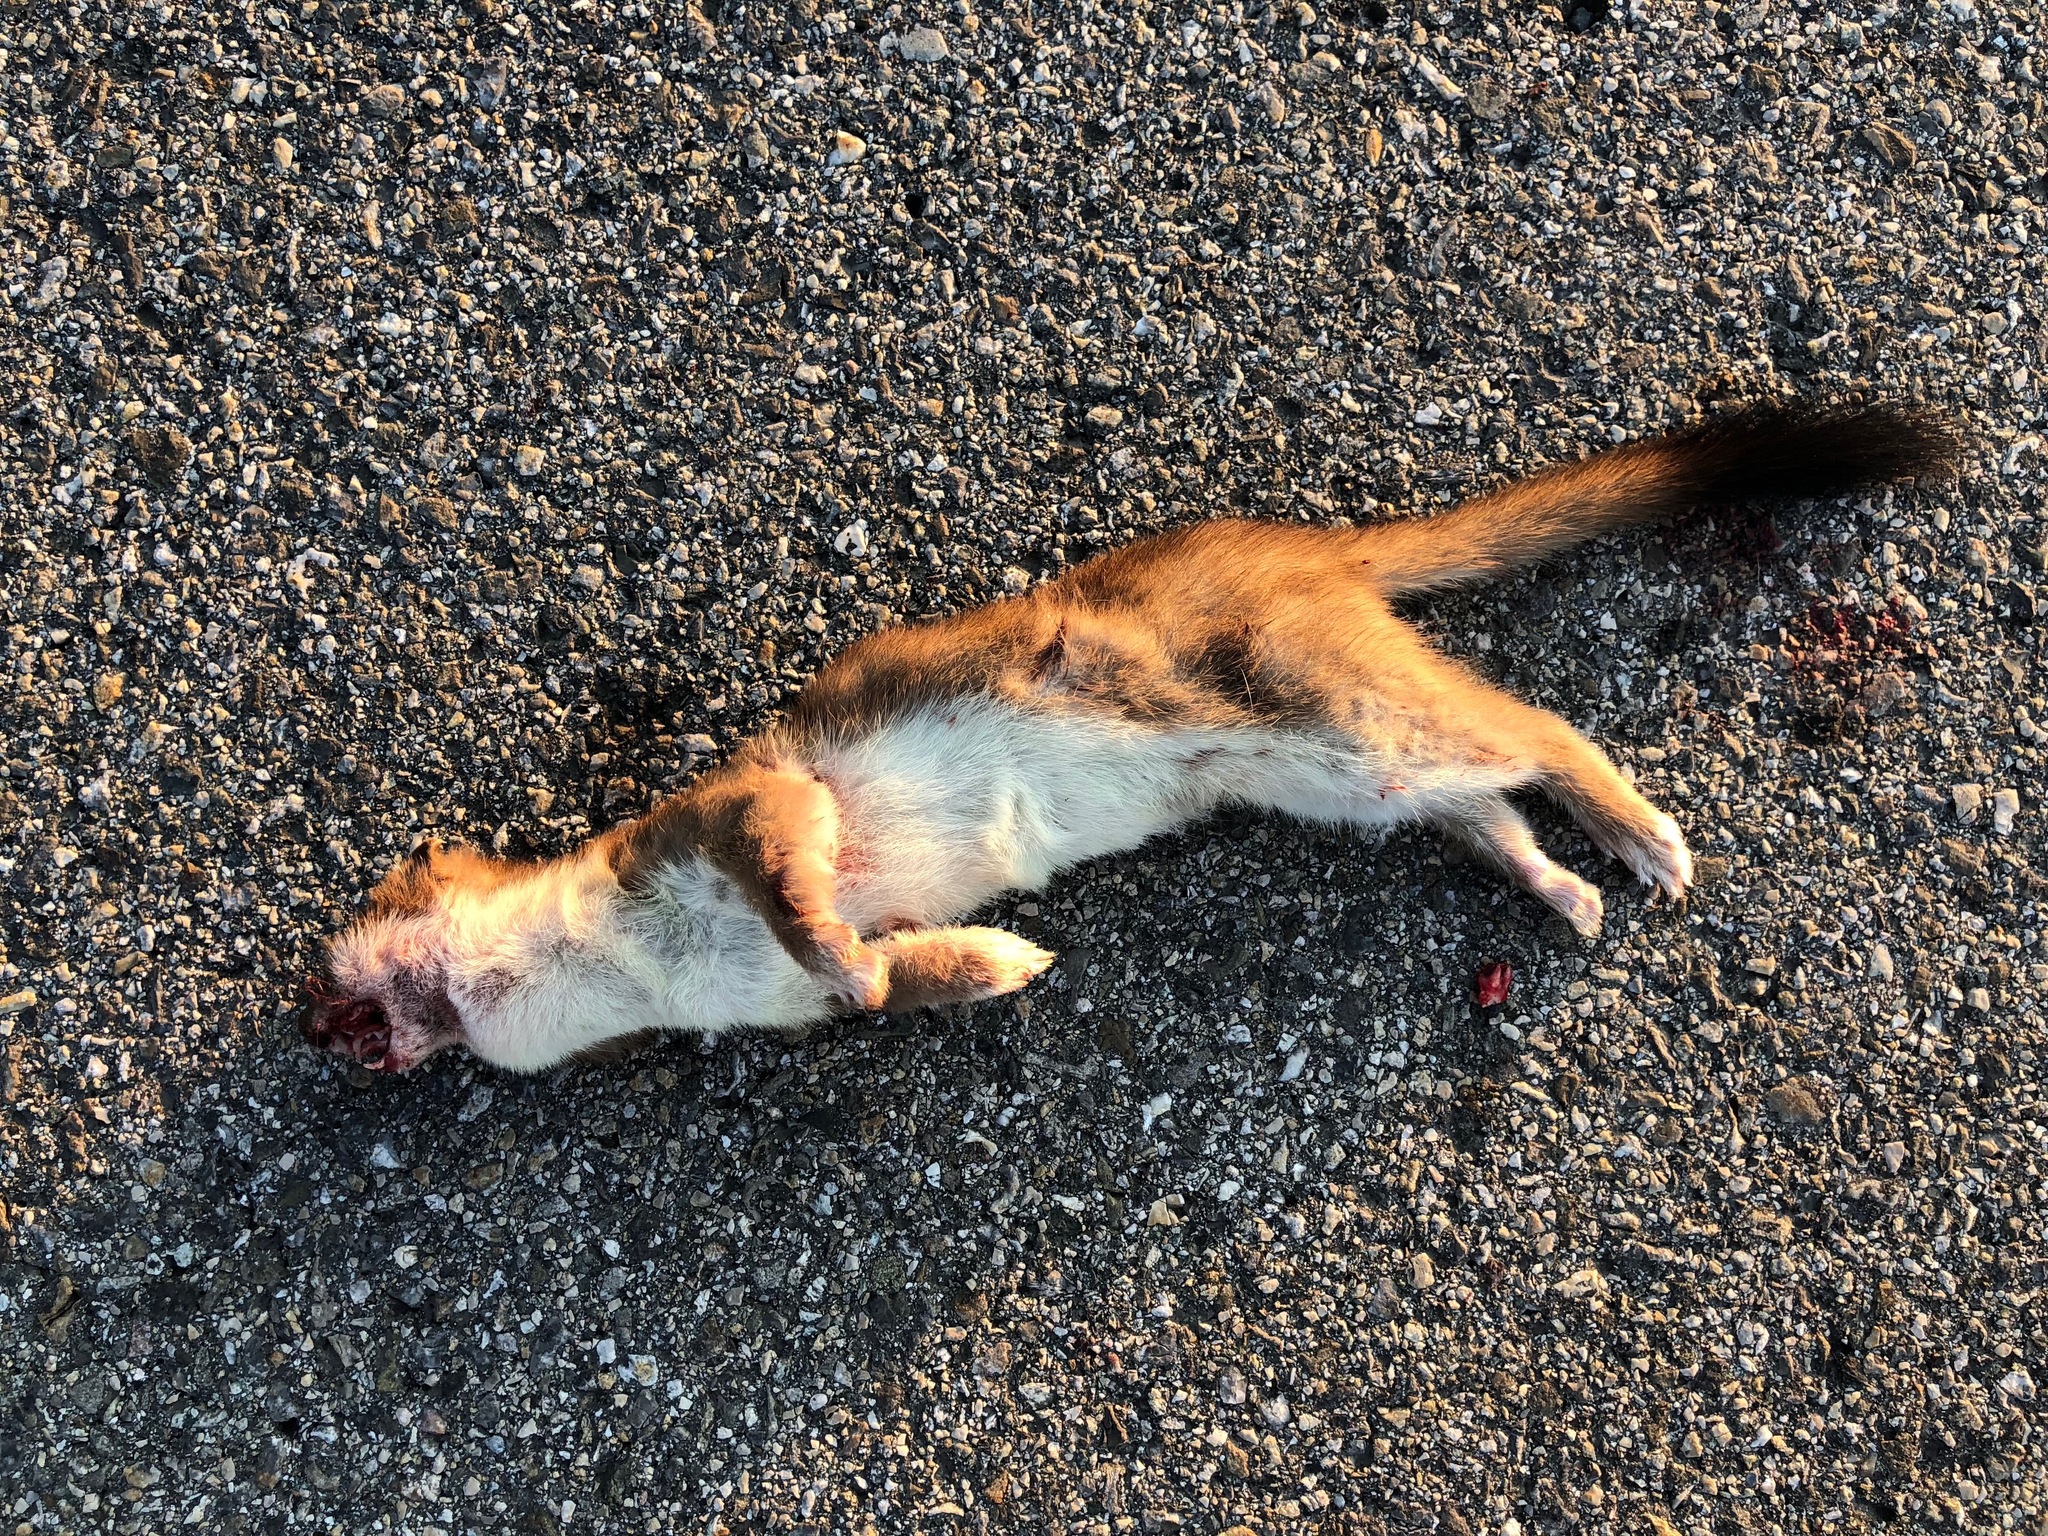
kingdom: Animalia
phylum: Chordata
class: Mammalia
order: Carnivora
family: Mustelidae
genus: Mustela
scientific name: Mustela erminea
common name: Stoat
